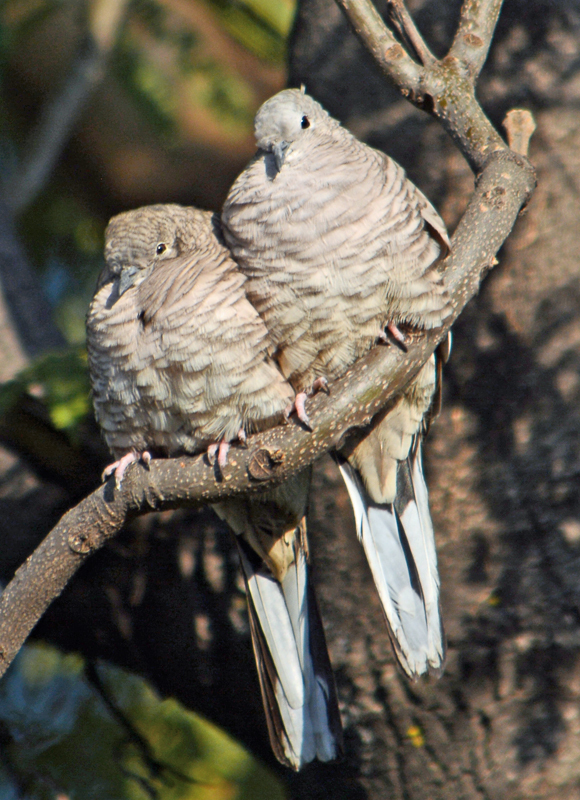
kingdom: Animalia
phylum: Chordata
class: Aves
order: Columbiformes
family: Columbidae
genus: Columbina
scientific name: Columbina inca
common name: Inca dove
